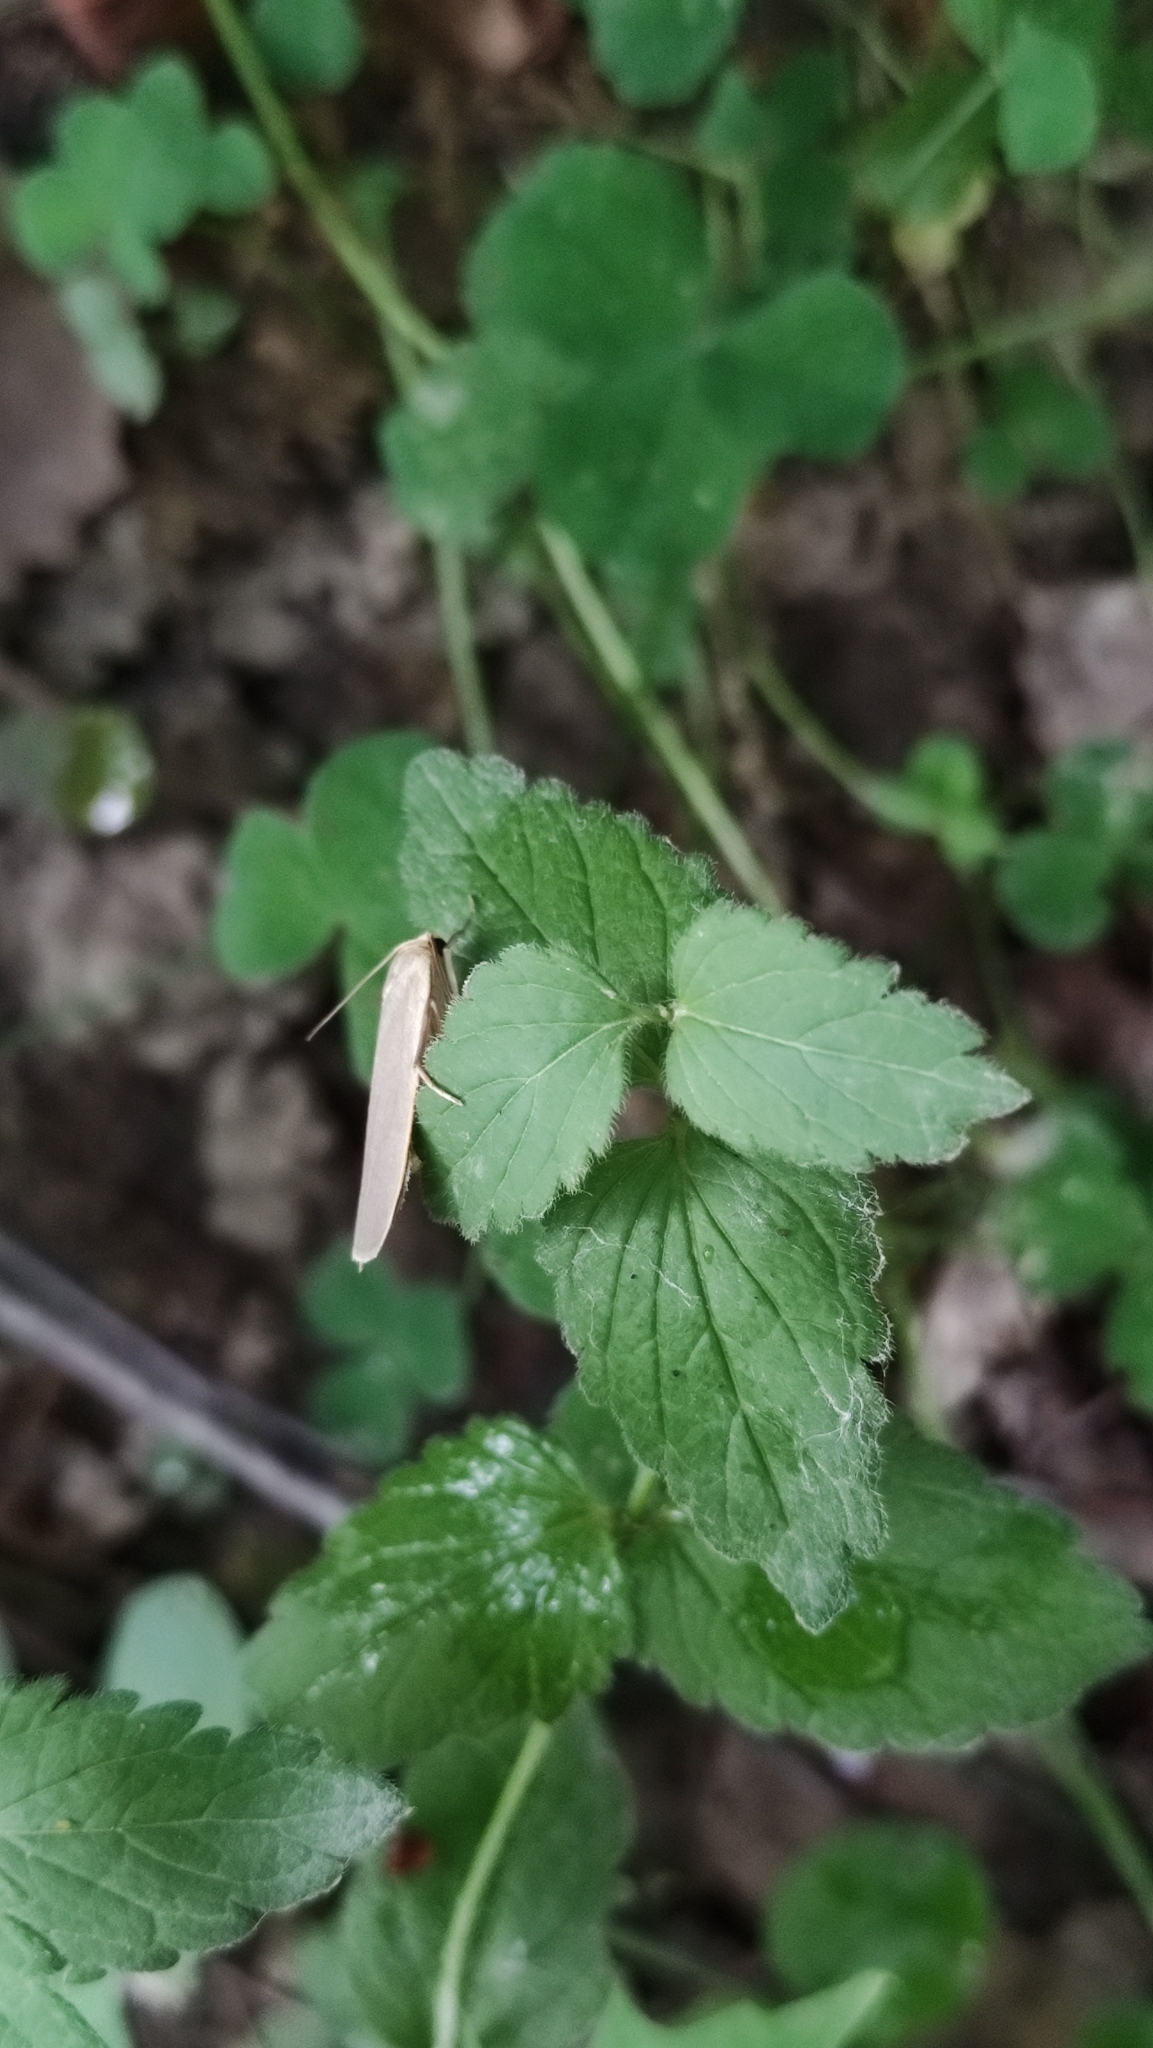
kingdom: Animalia
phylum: Arthropoda
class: Insecta
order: Lepidoptera
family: Erebidae
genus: Collita
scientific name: Collita griseola
